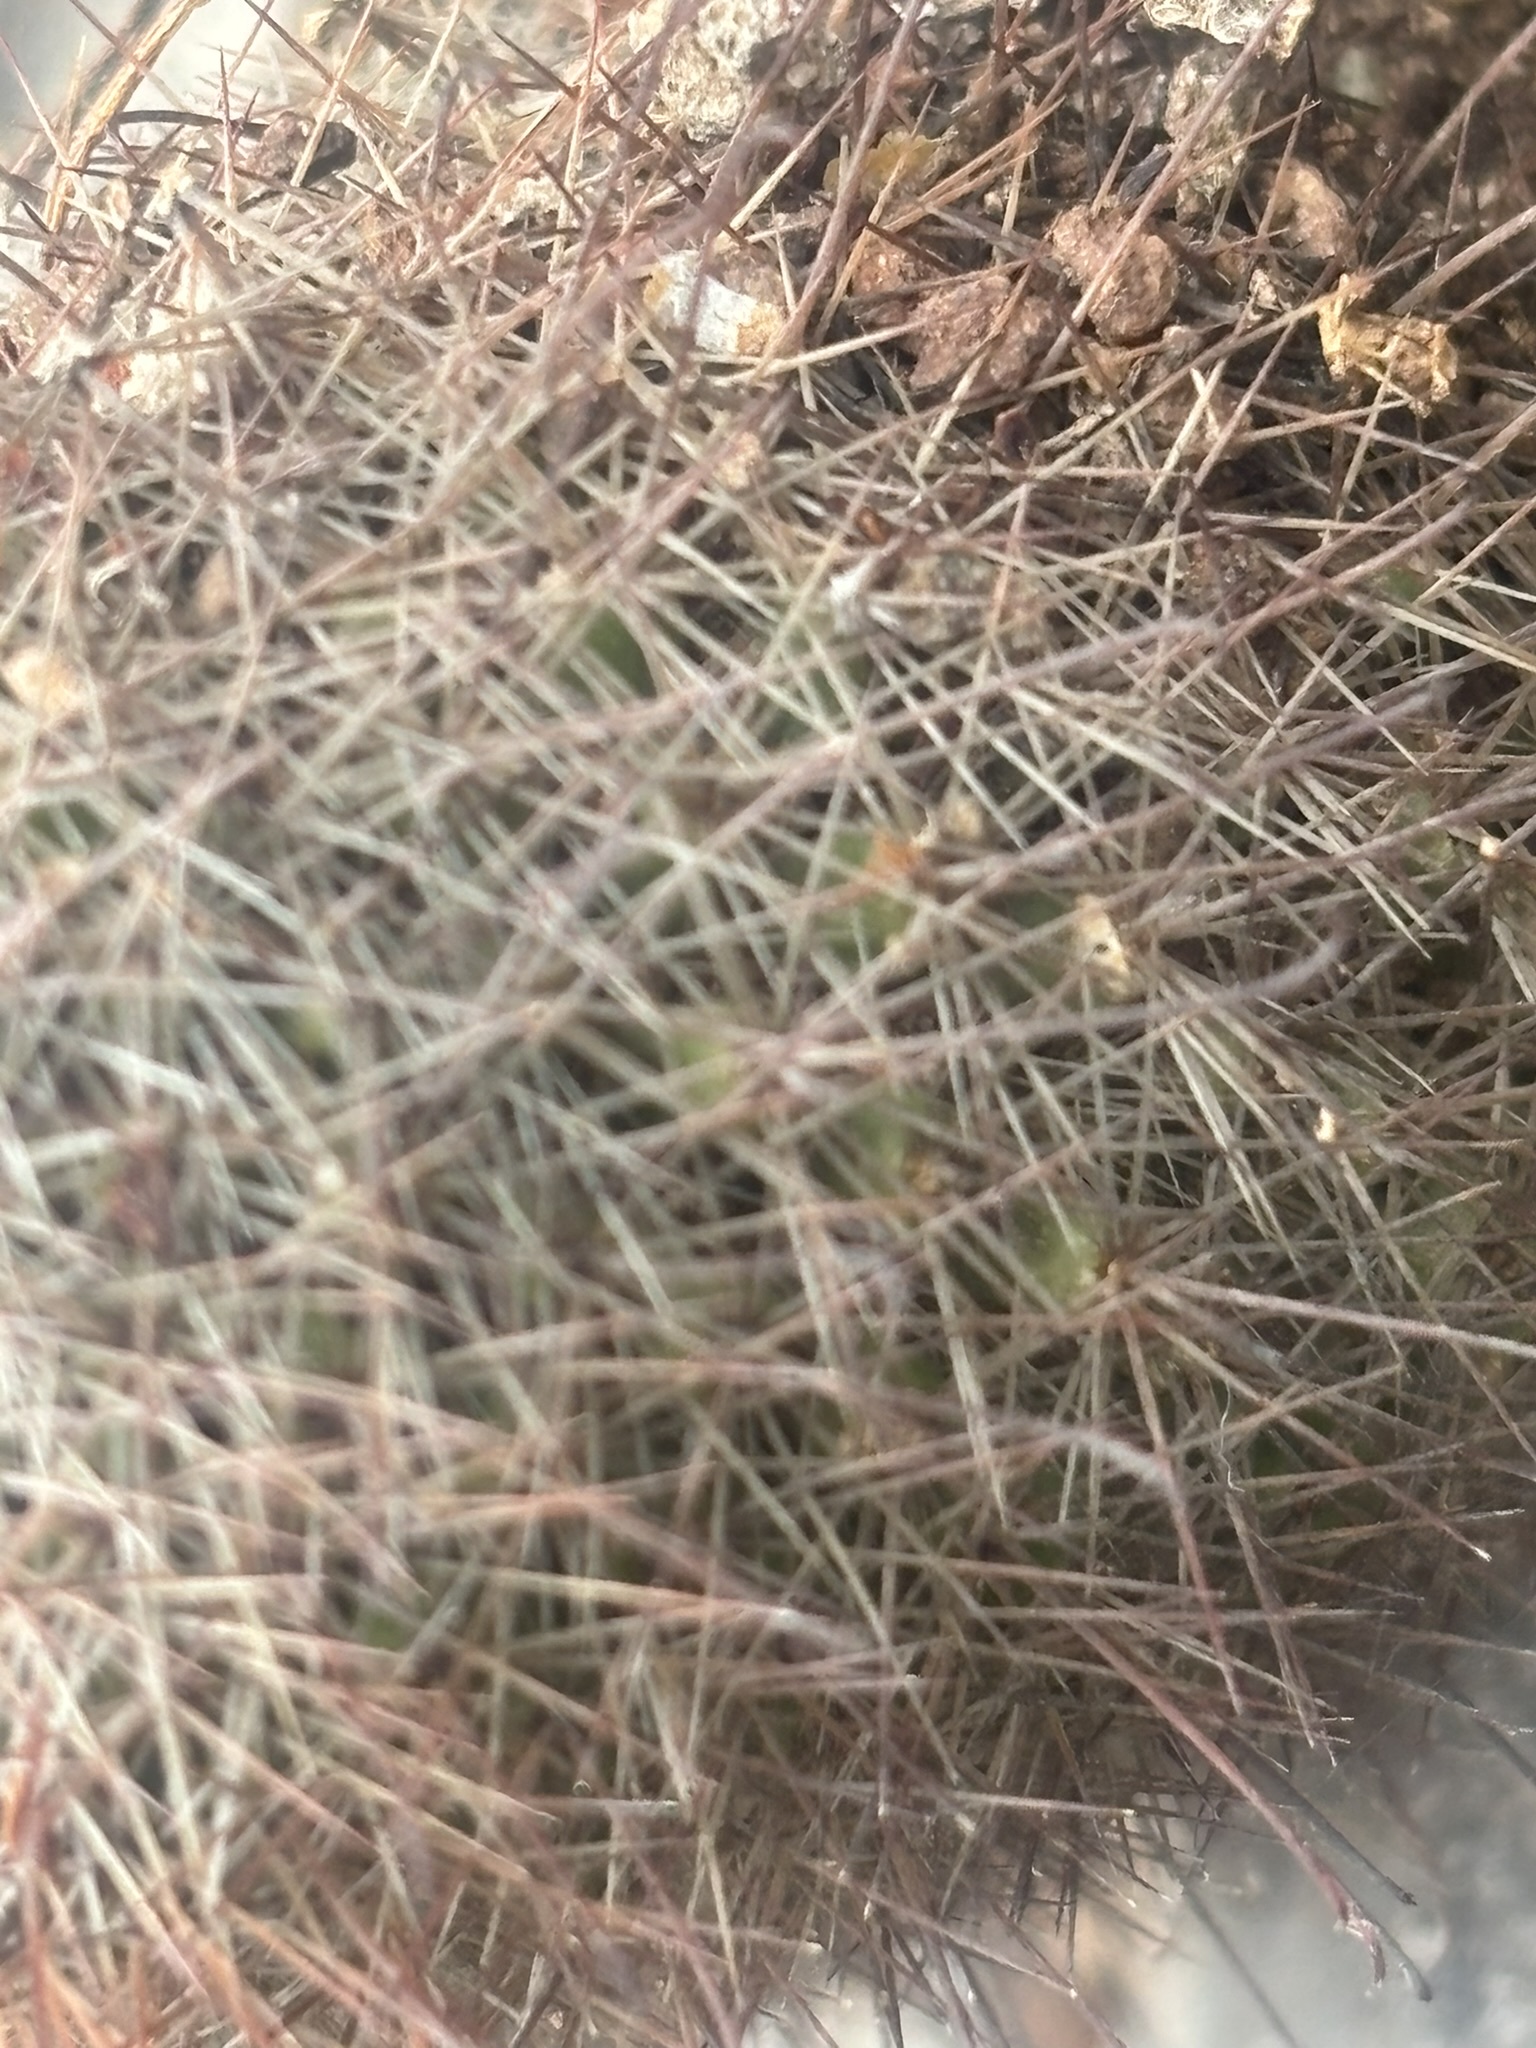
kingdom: Plantae
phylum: Tracheophyta
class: Magnoliopsida
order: Caryophyllales
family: Cactaceae
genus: Cochemiea
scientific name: Cochemiea dioica
